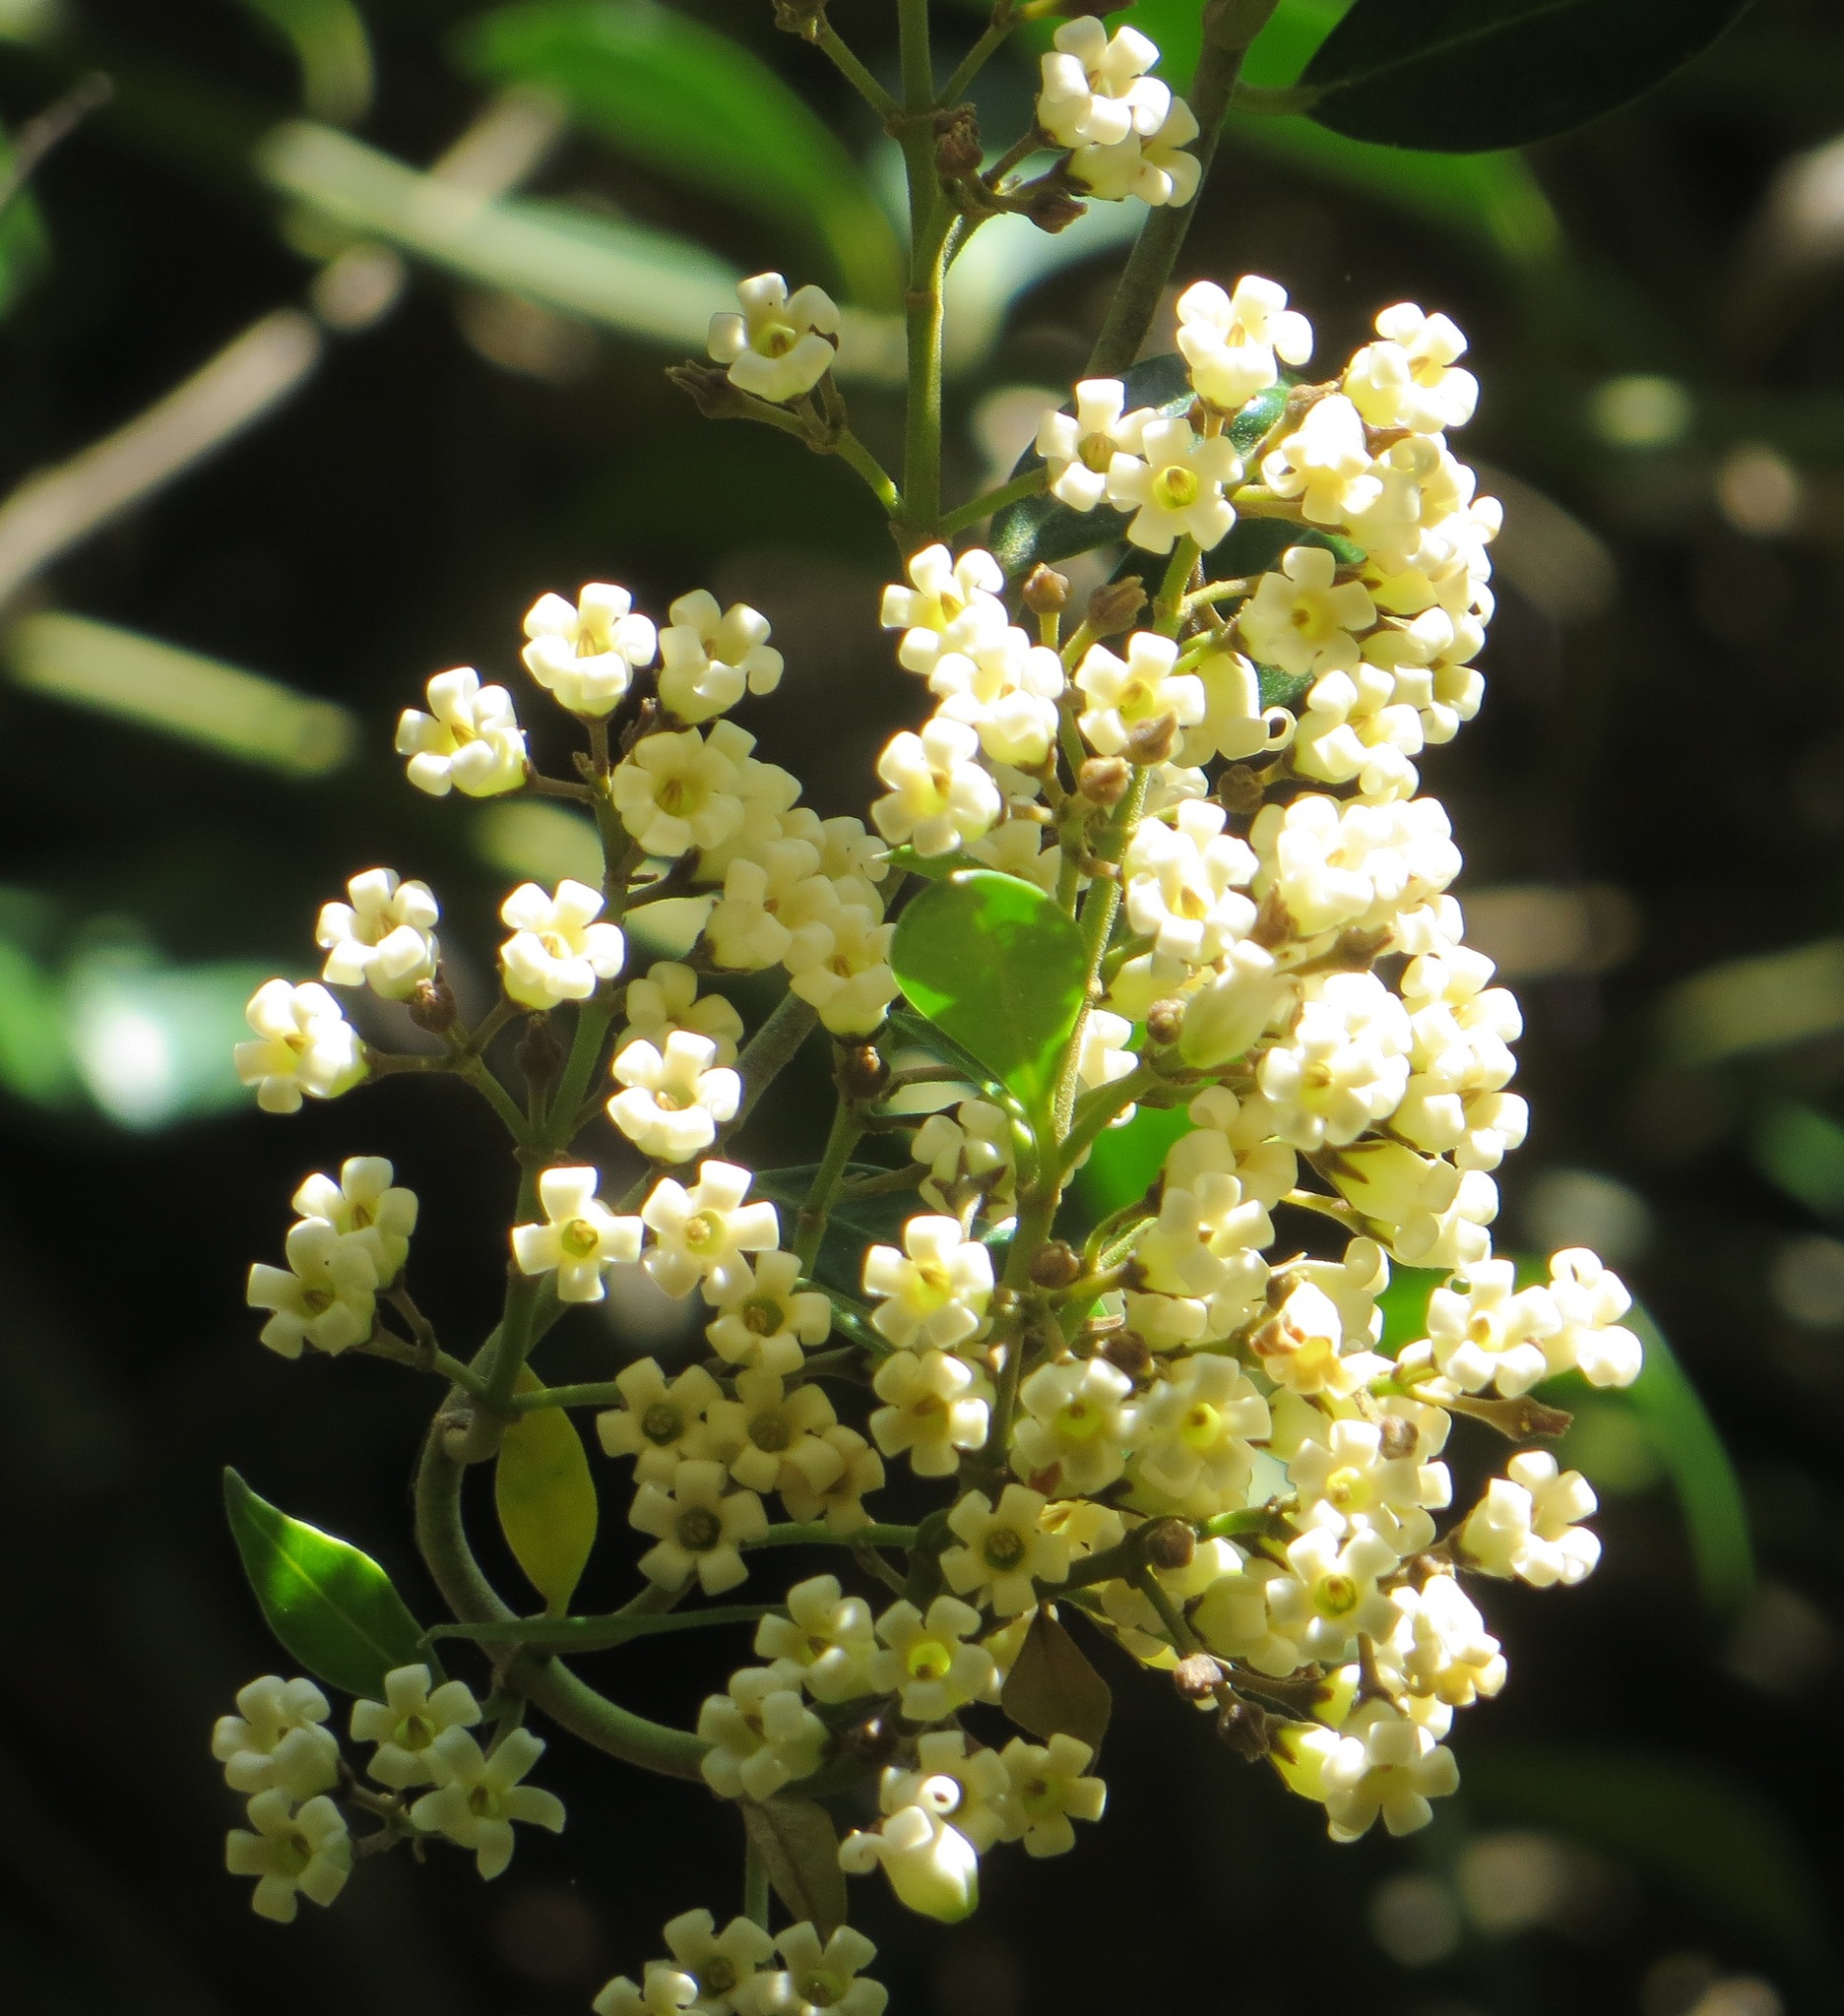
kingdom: Plantae
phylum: Tracheophyta
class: Magnoliopsida
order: Gentianales
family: Apocynaceae
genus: Parsonsia
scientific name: Parsonsia heterophylla
